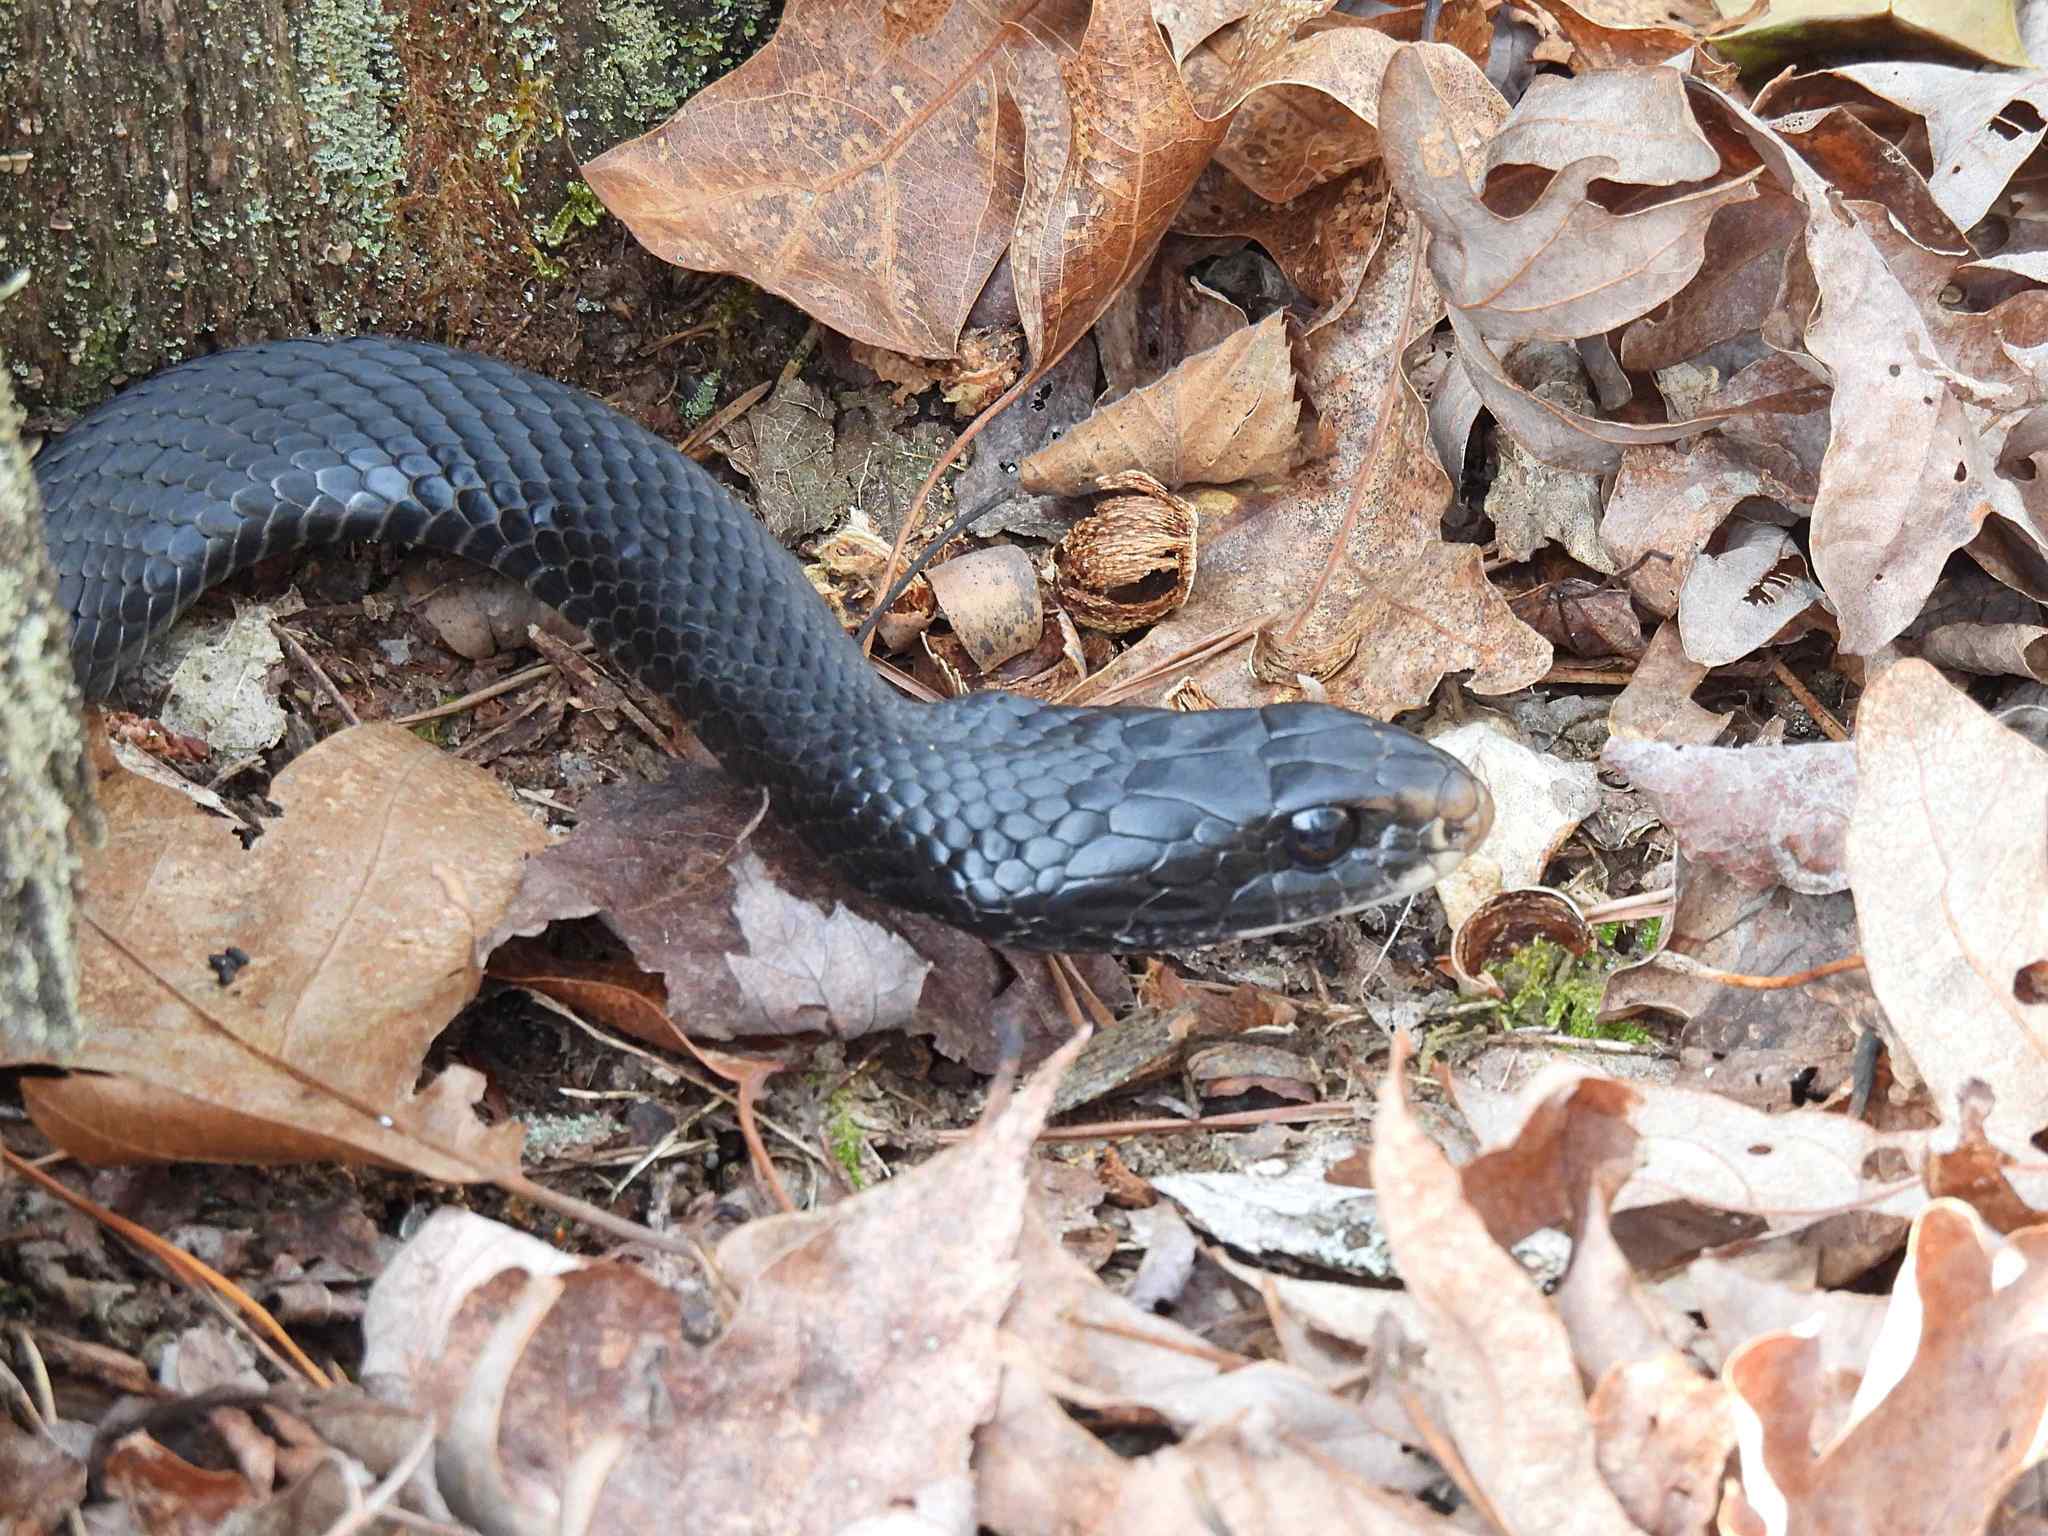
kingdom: Animalia
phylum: Chordata
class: Squamata
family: Colubridae
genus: Coluber
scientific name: Coluber constrictor
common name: Eastern racer
